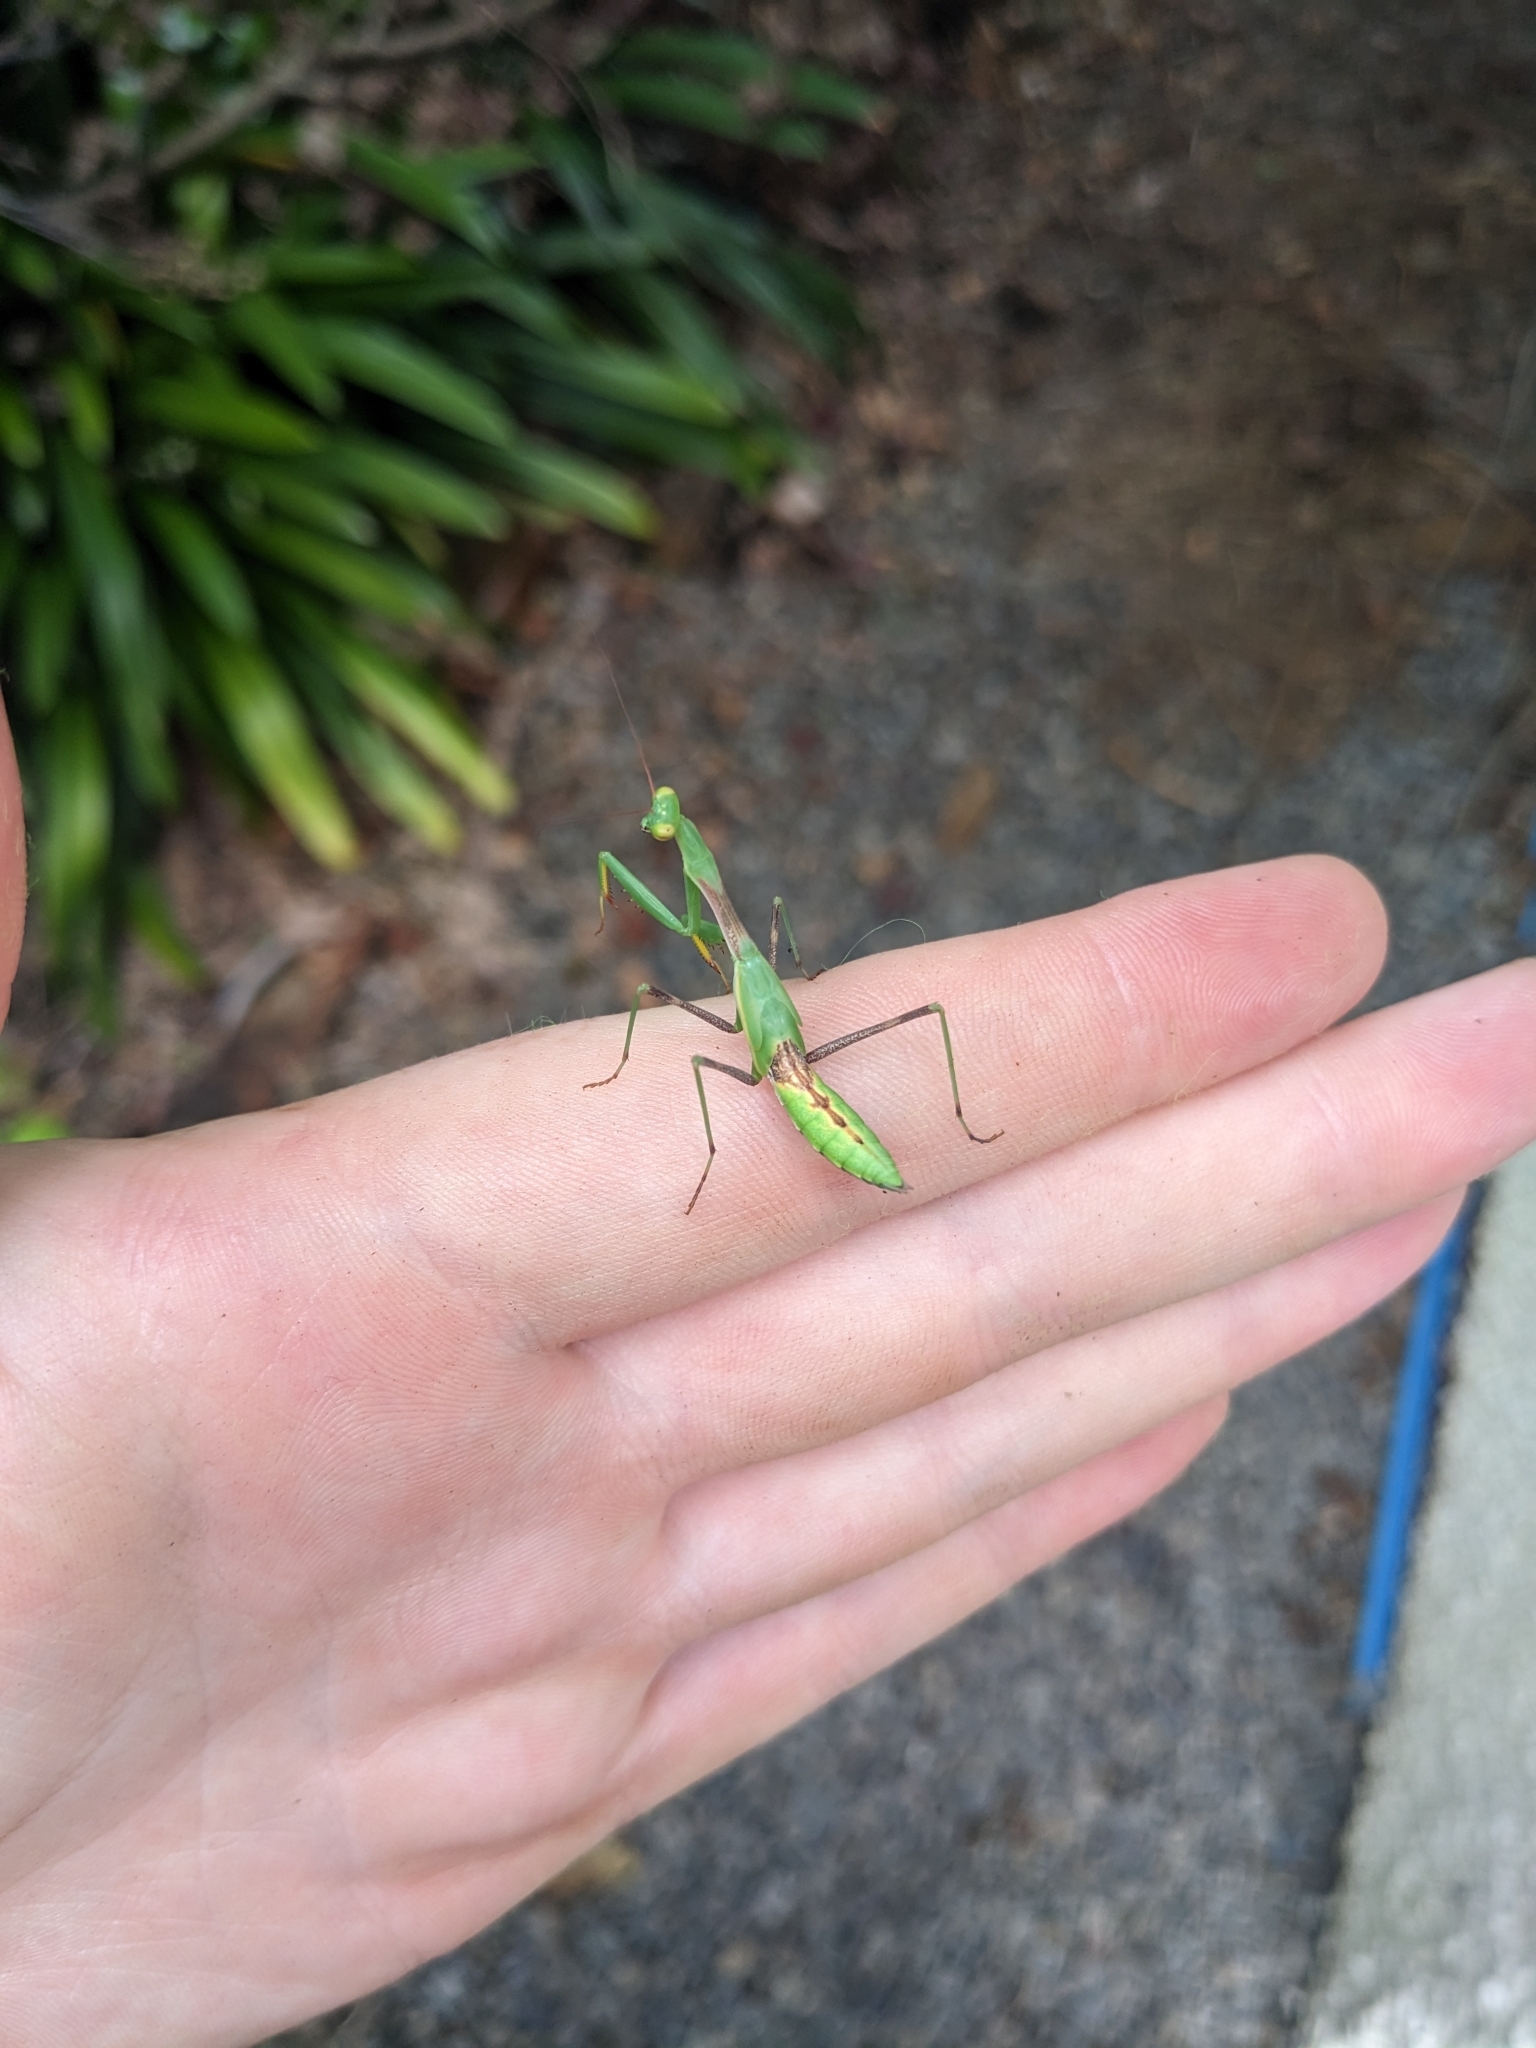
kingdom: Animalia
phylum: Arthropoda
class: Insecta
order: Mantodea
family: Miomantidae
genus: Miomantis
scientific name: Miomantis caffra
